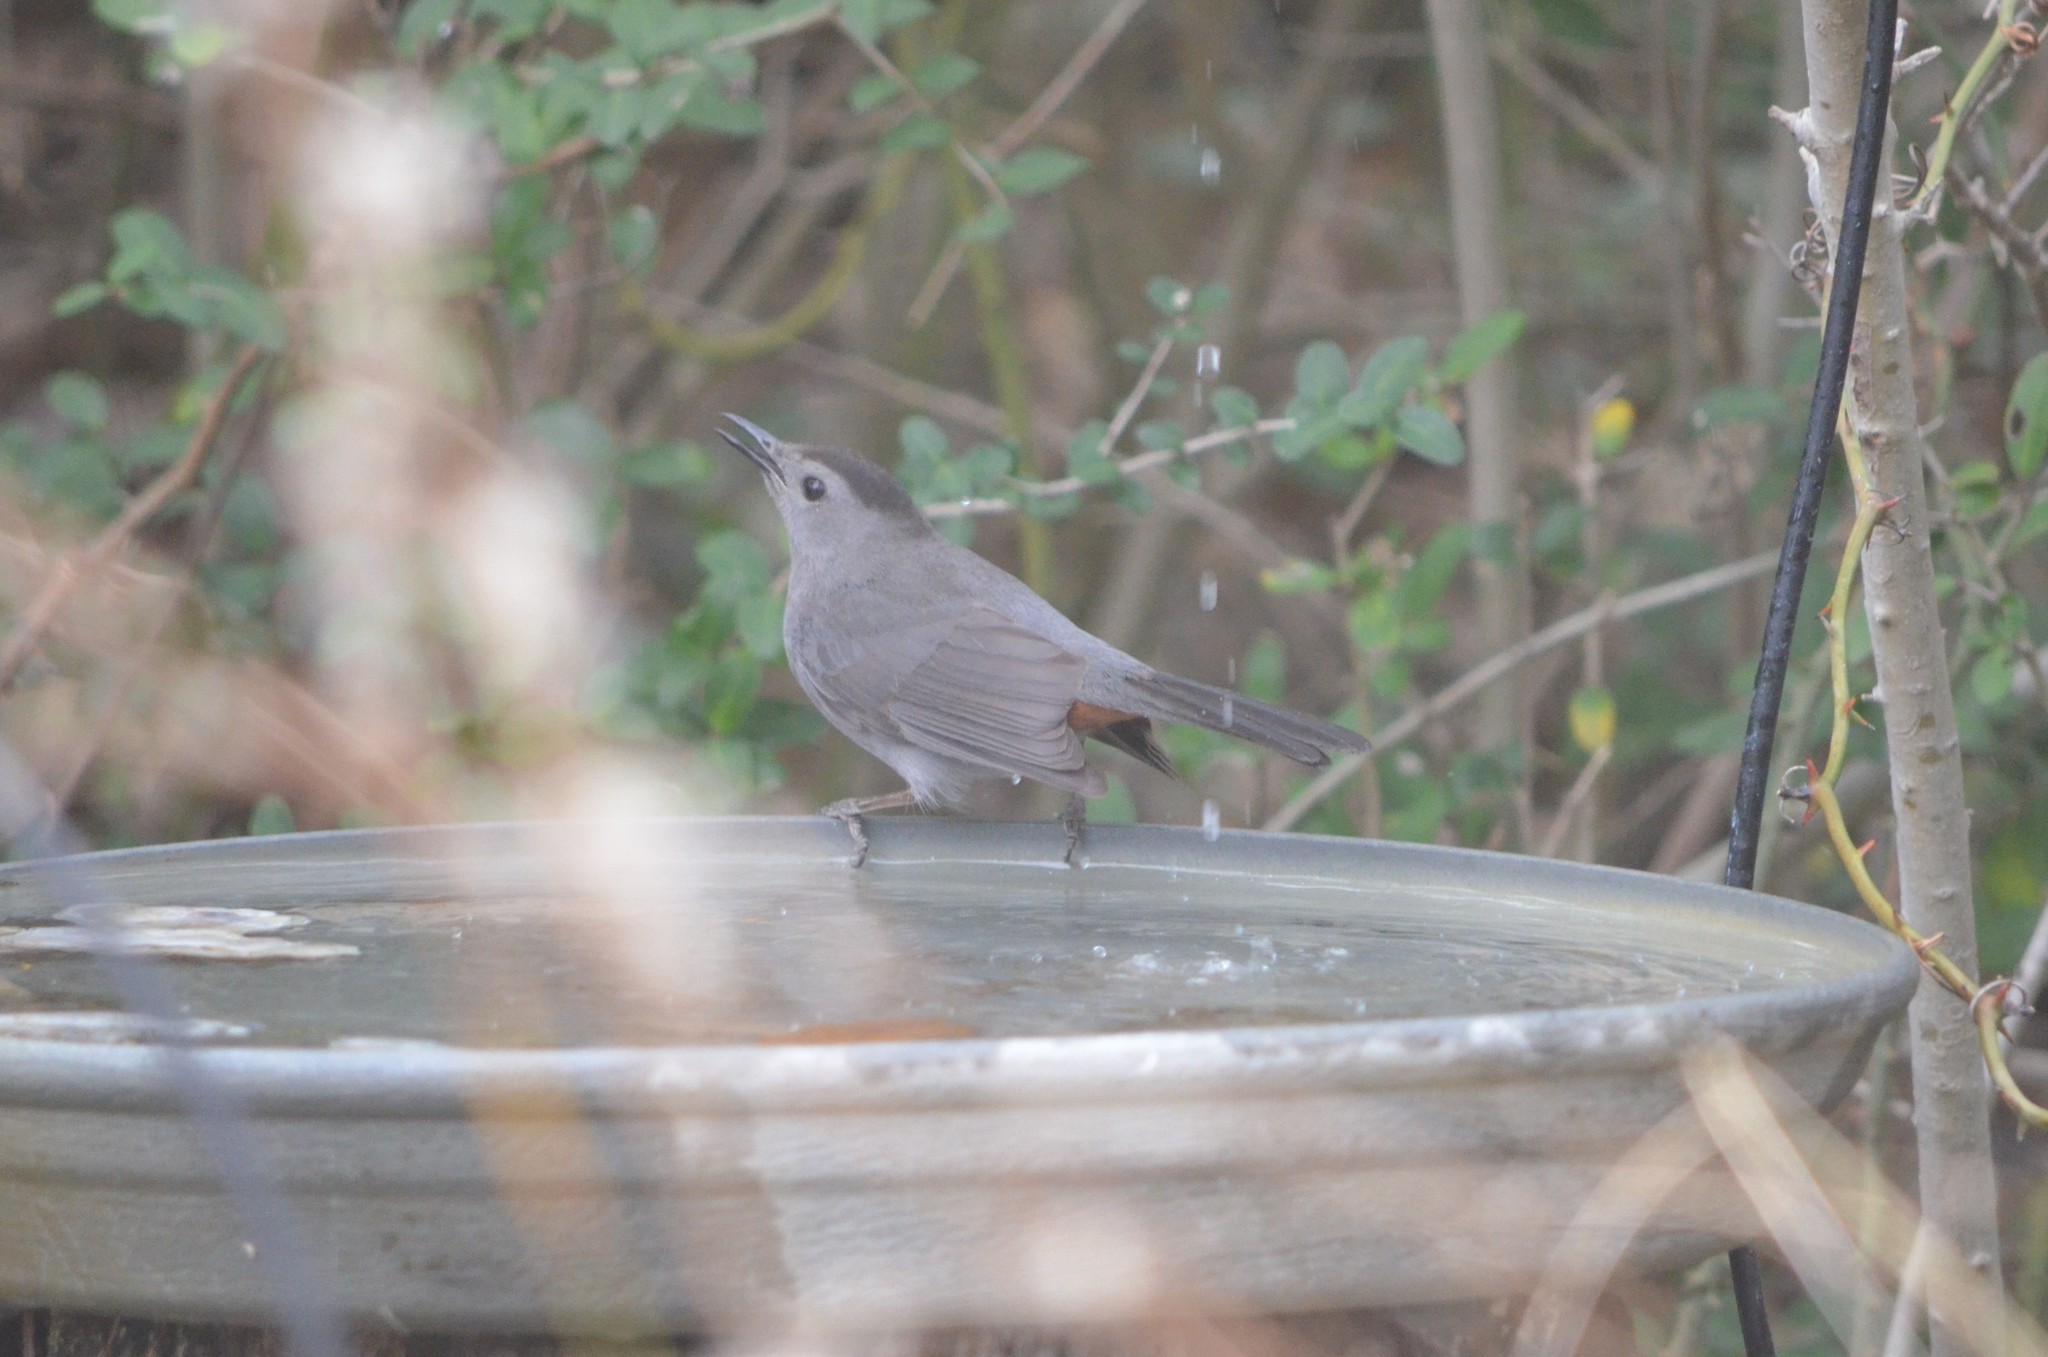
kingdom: Animalia
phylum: Chordata
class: Aves
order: Passeriformes
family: Mimidae
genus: Dumetella
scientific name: Dumetella carolinensis
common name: Gray catbird
